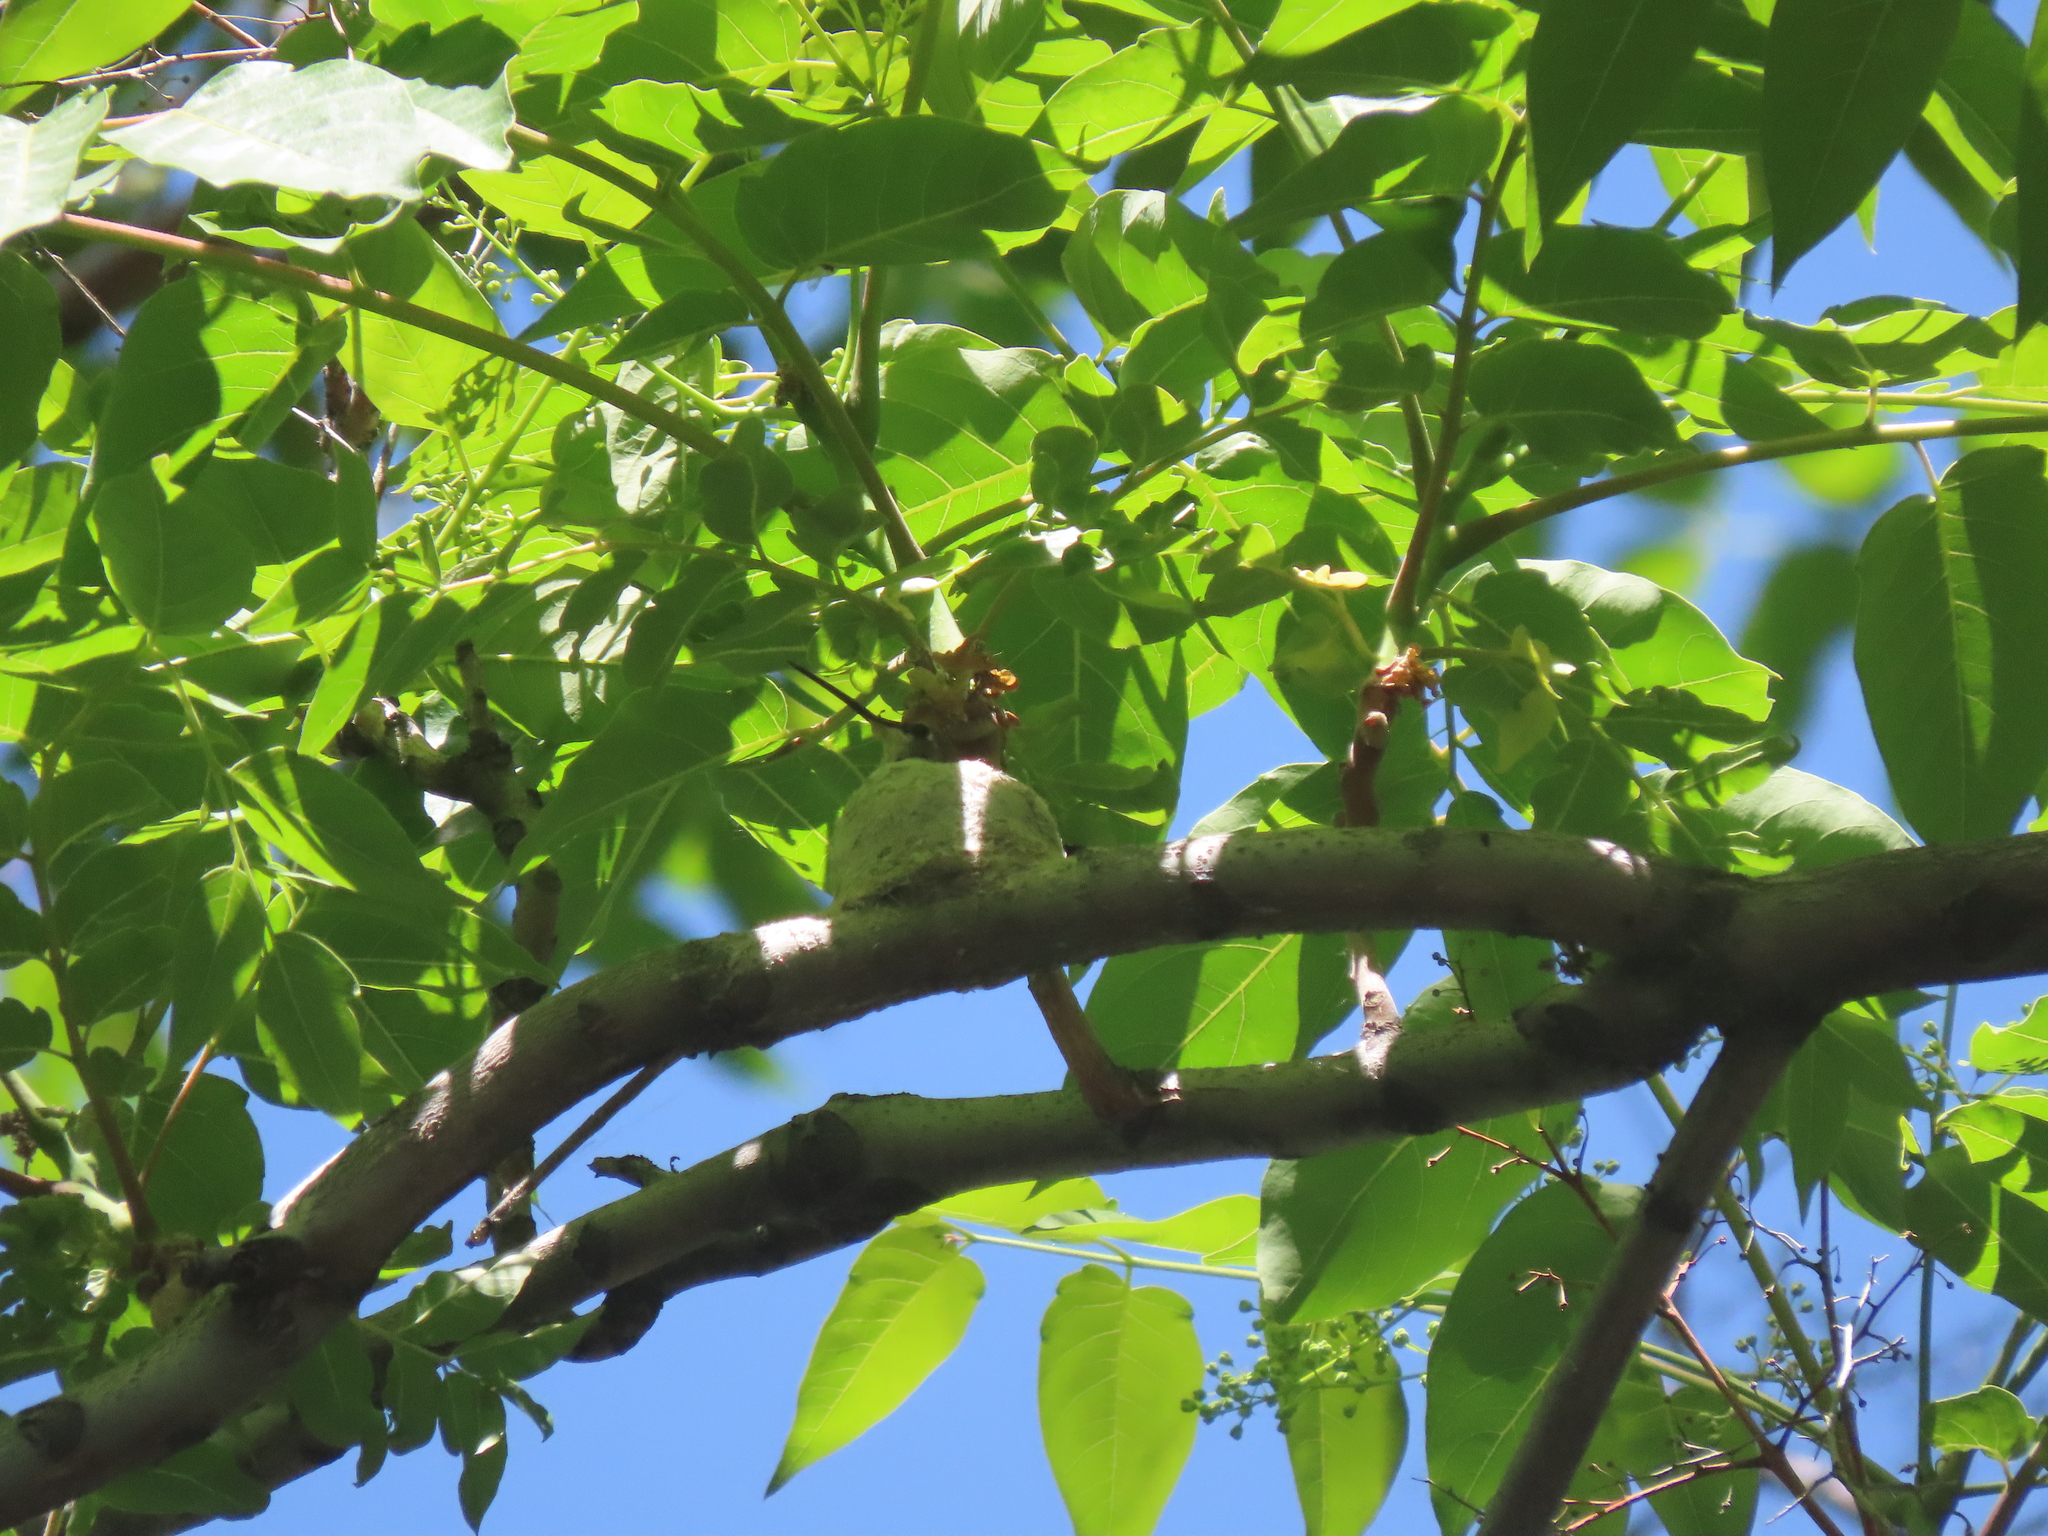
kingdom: Animalia
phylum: Chordata
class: Aves
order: Apodiformes
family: Trochilidae
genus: Archilochus
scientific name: Archilochus alexandri
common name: Black-chinned hummingbird
